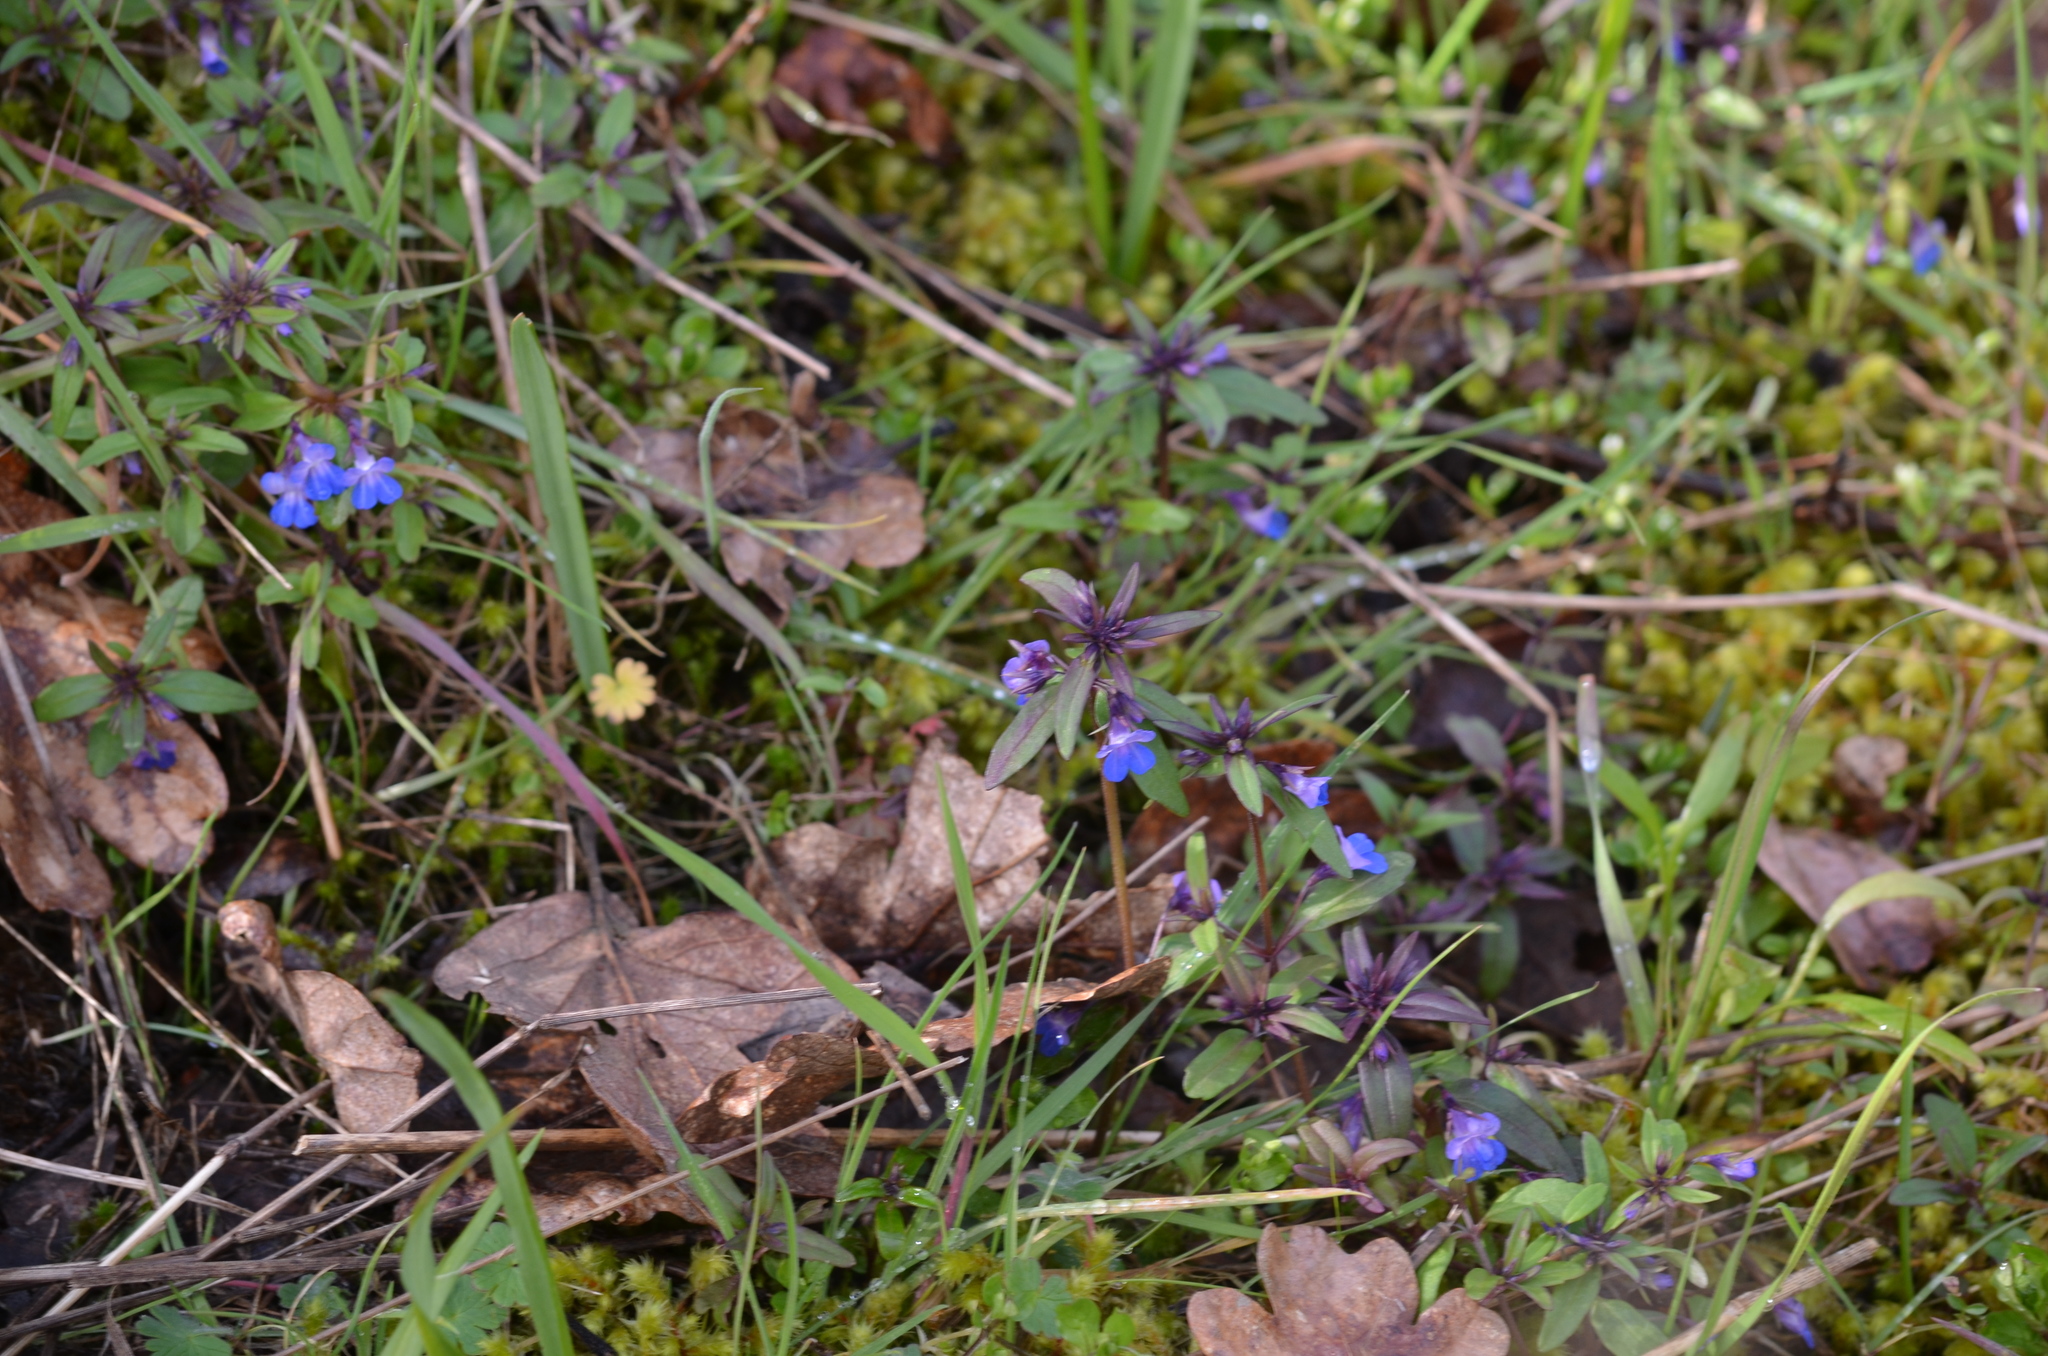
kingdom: Plantae
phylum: Tracheophyta
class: Magnoliopsida
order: Lamiales
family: Plantaginaceae
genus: Collinsia
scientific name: Collinsia parviflora
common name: Blue-lips
